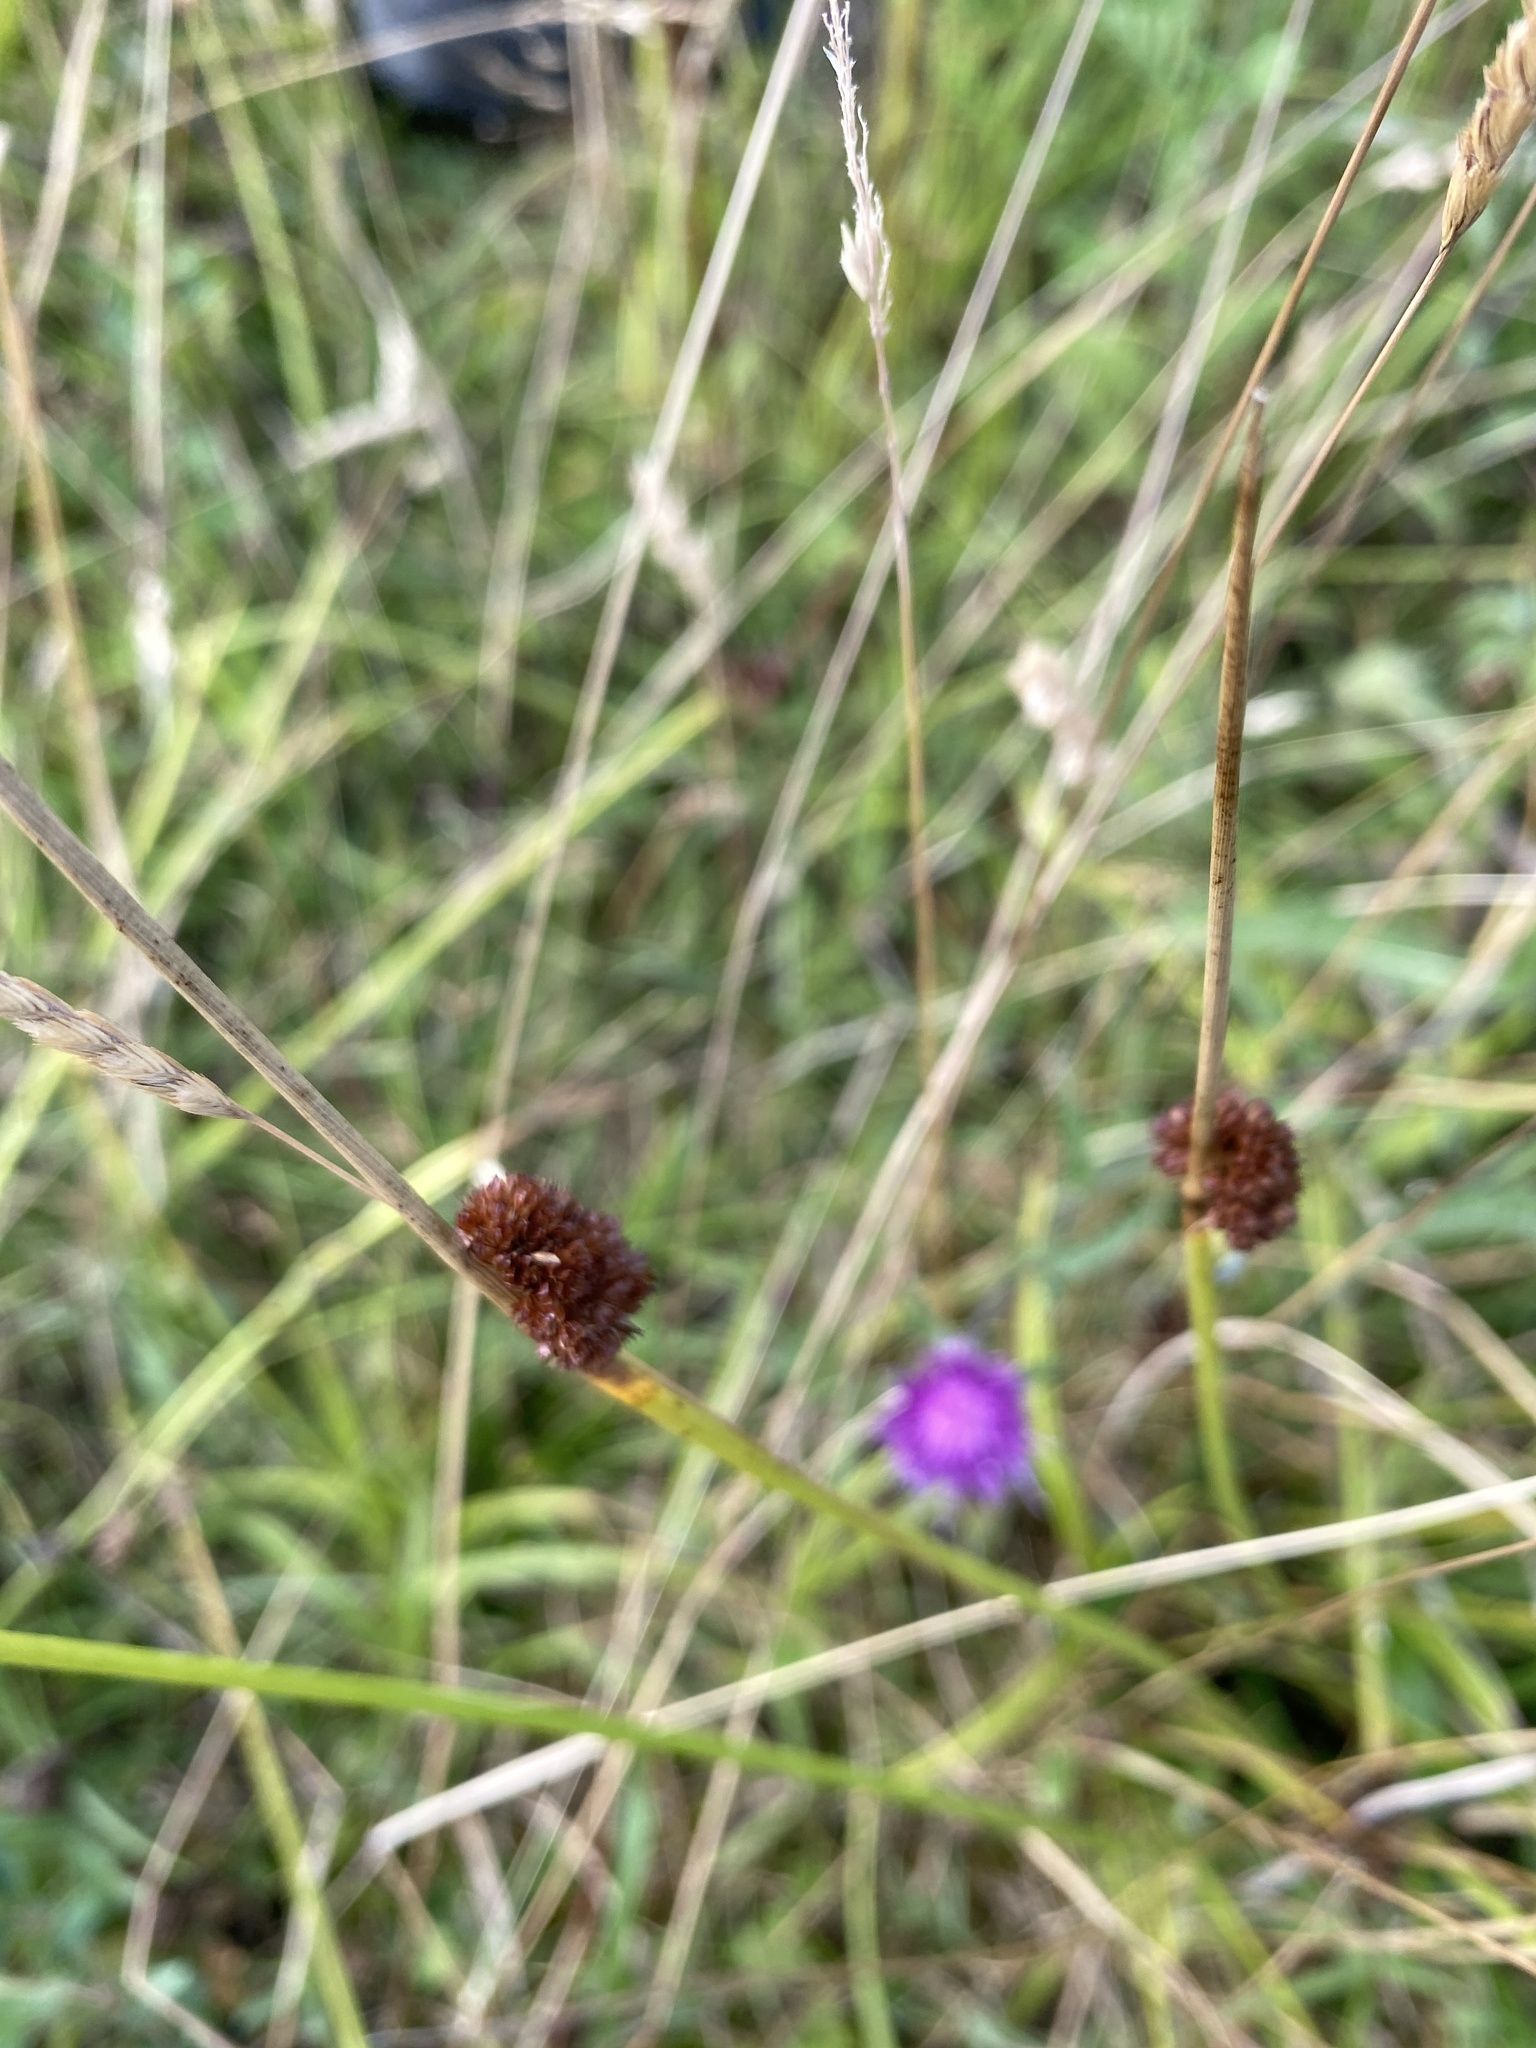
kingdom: Plantae
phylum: Tracheophyta
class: Liliopsida
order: Poales
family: Juncaceae
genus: Juncus
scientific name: Juncus conglomeratus
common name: Compact rush
